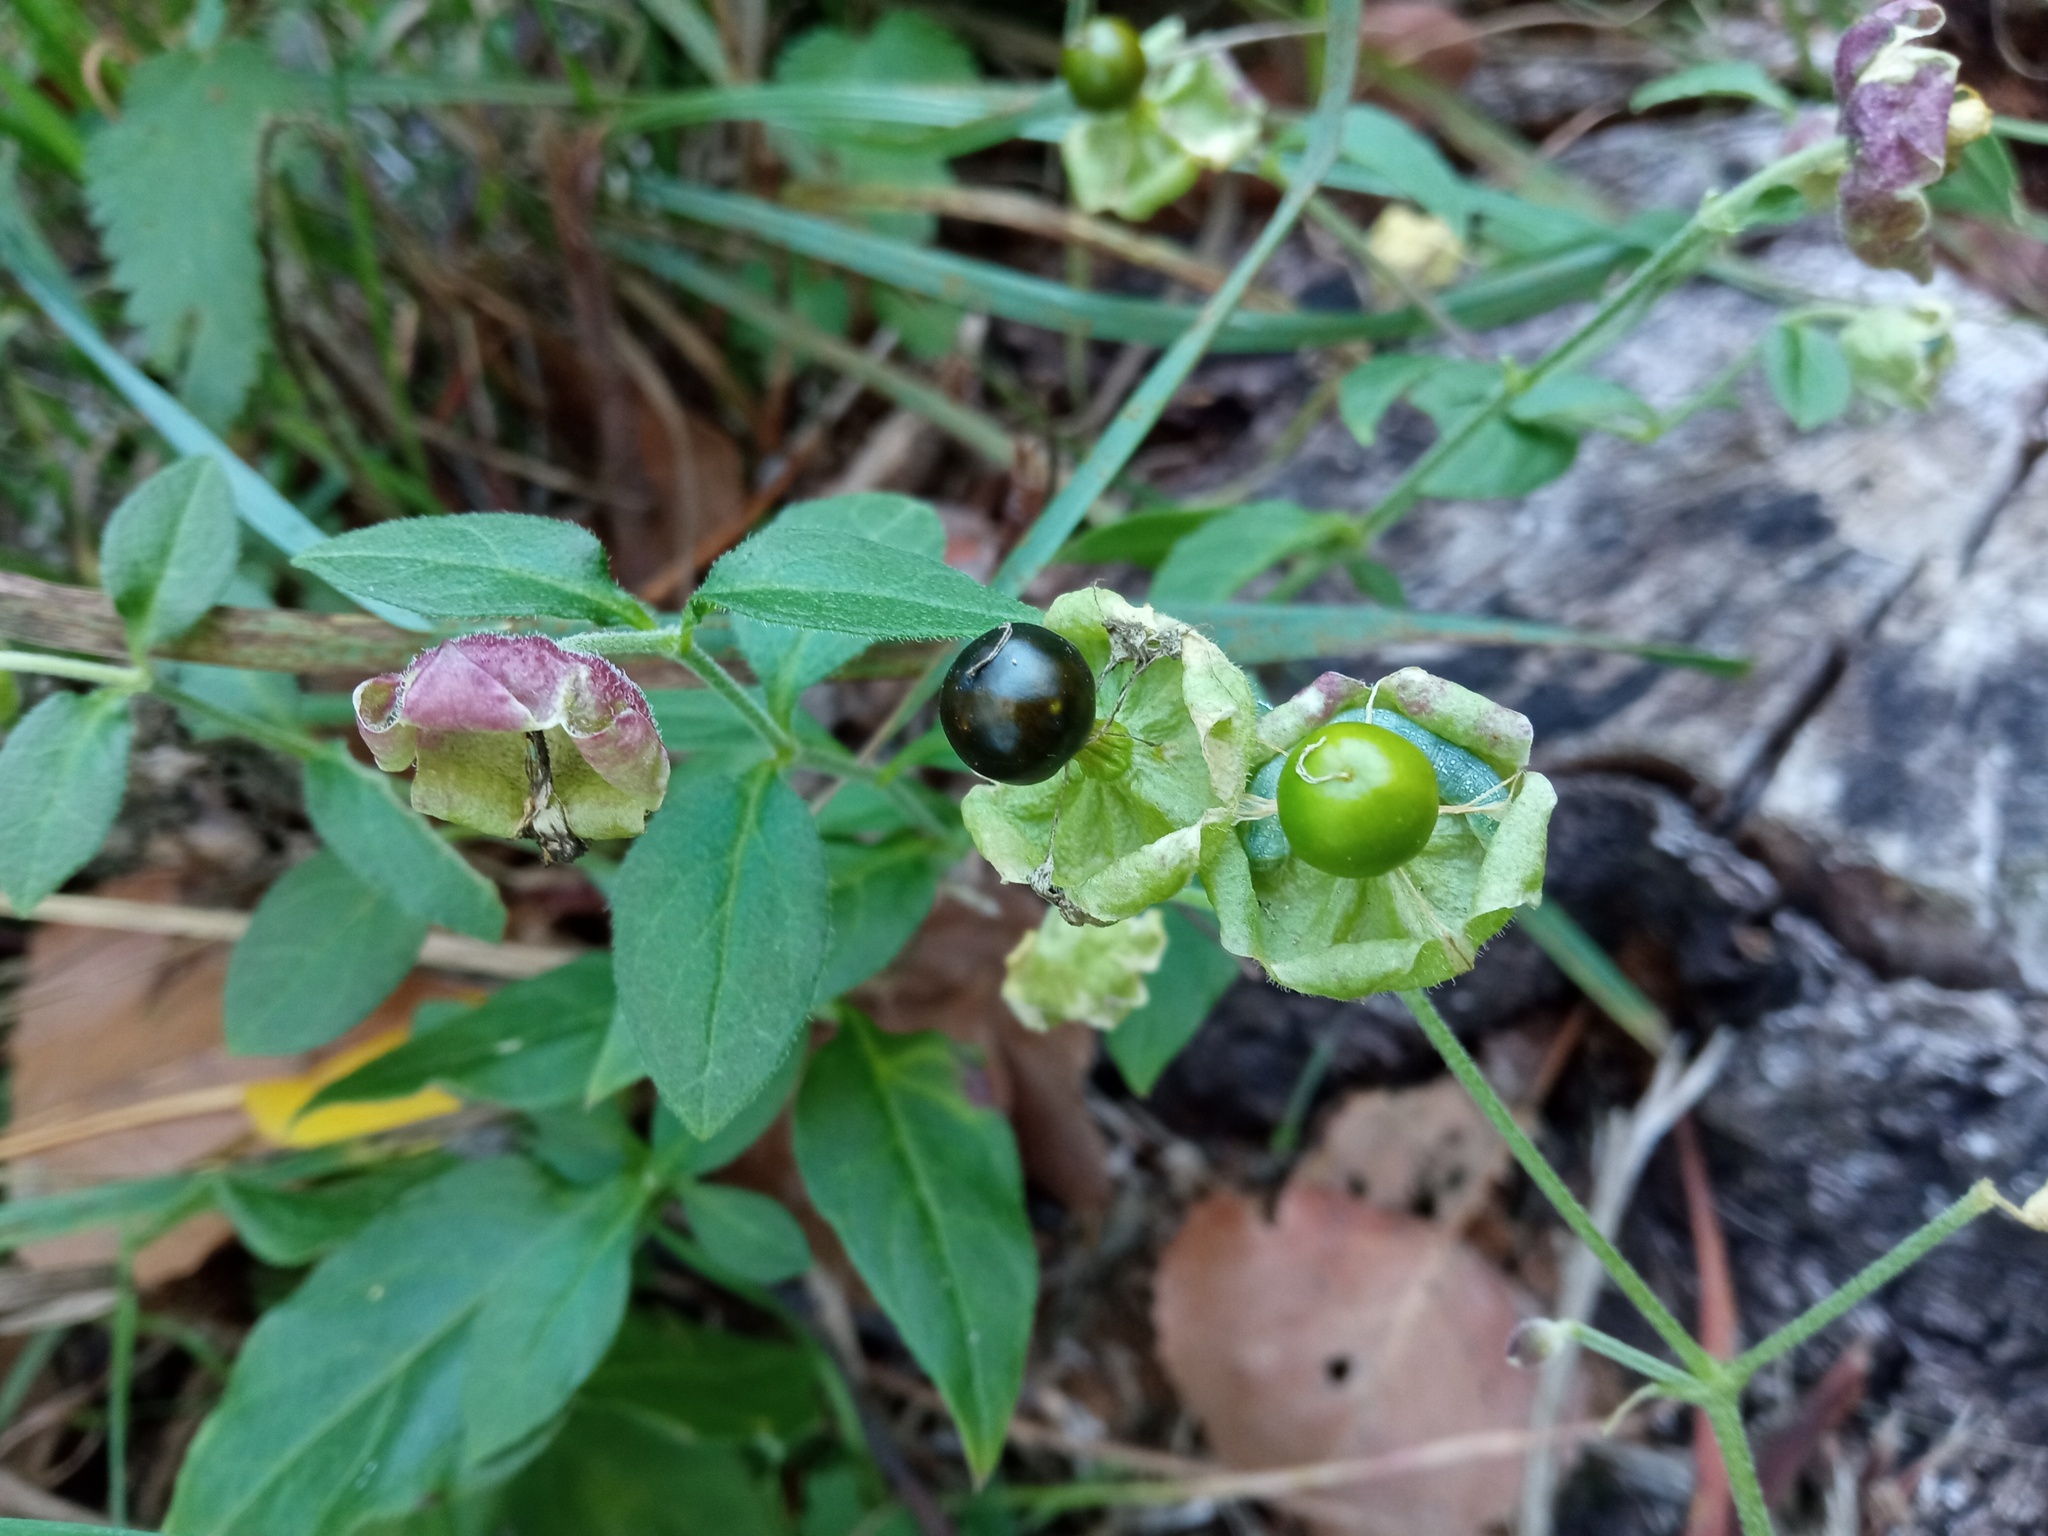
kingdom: Plantae
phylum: Tracheophyta
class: Magnoliopsida
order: Caryophyllales
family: Caryophyllaceae
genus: Silene
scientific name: Silene baccifera
